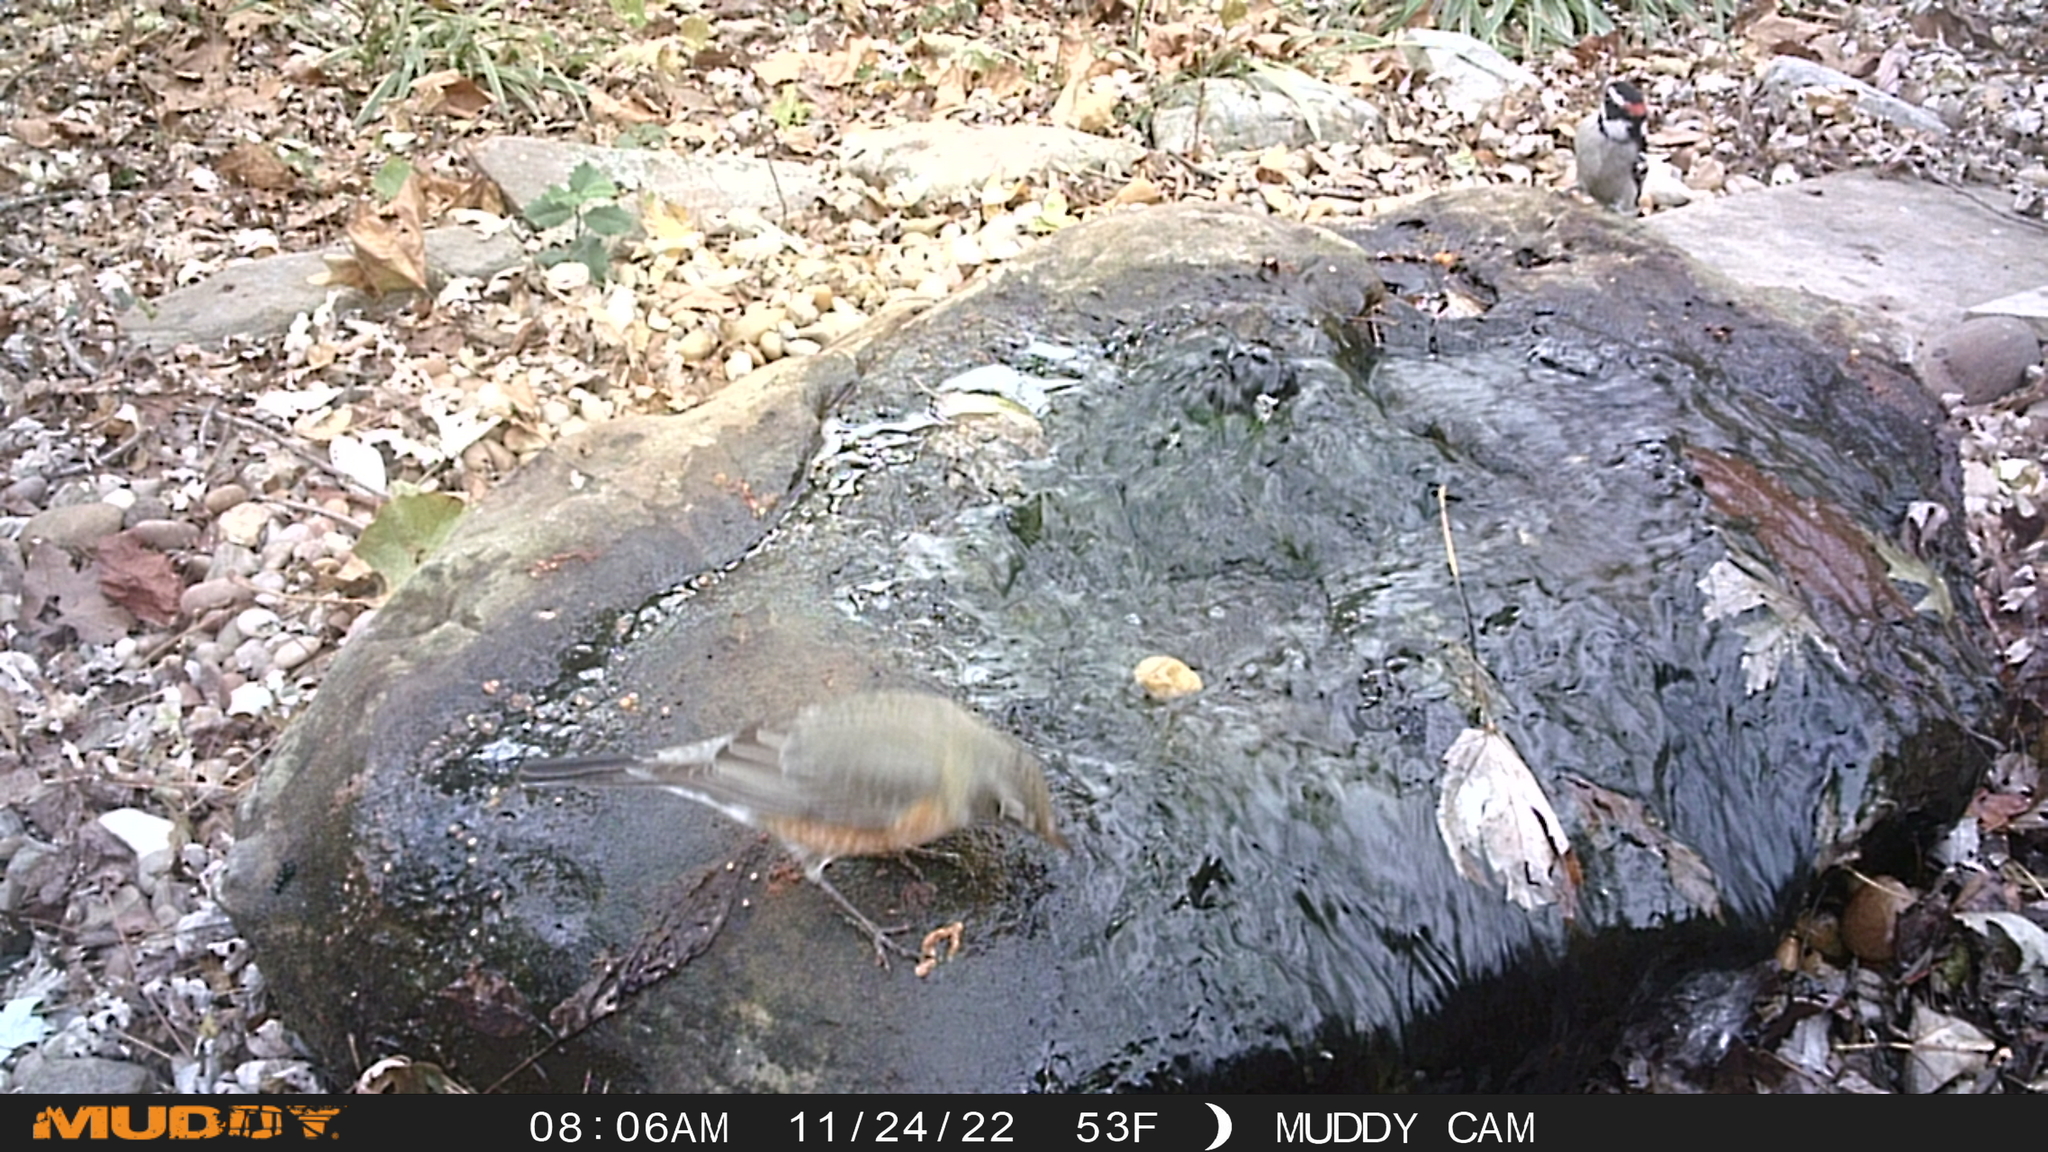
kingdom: Animalia
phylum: Chordata
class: Aves
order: Passeriformes
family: Turdidae
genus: Turdus
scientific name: Turdus migratorius
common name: American robin
